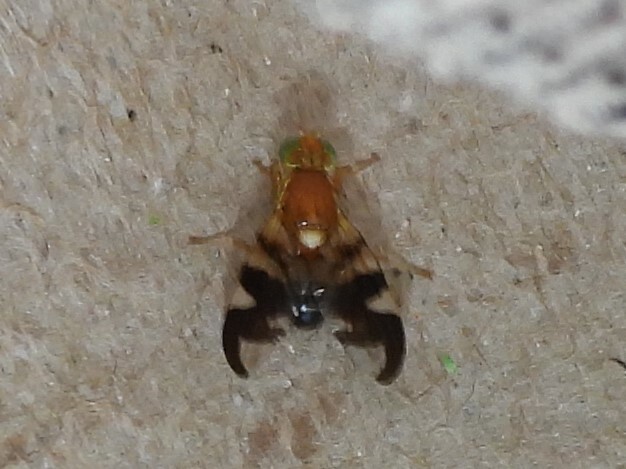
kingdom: Animalia
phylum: Arthropoda
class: Insecta
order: Diptera
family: Tephritidae
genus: Rhagoletis
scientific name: Rhagoletis suavis
